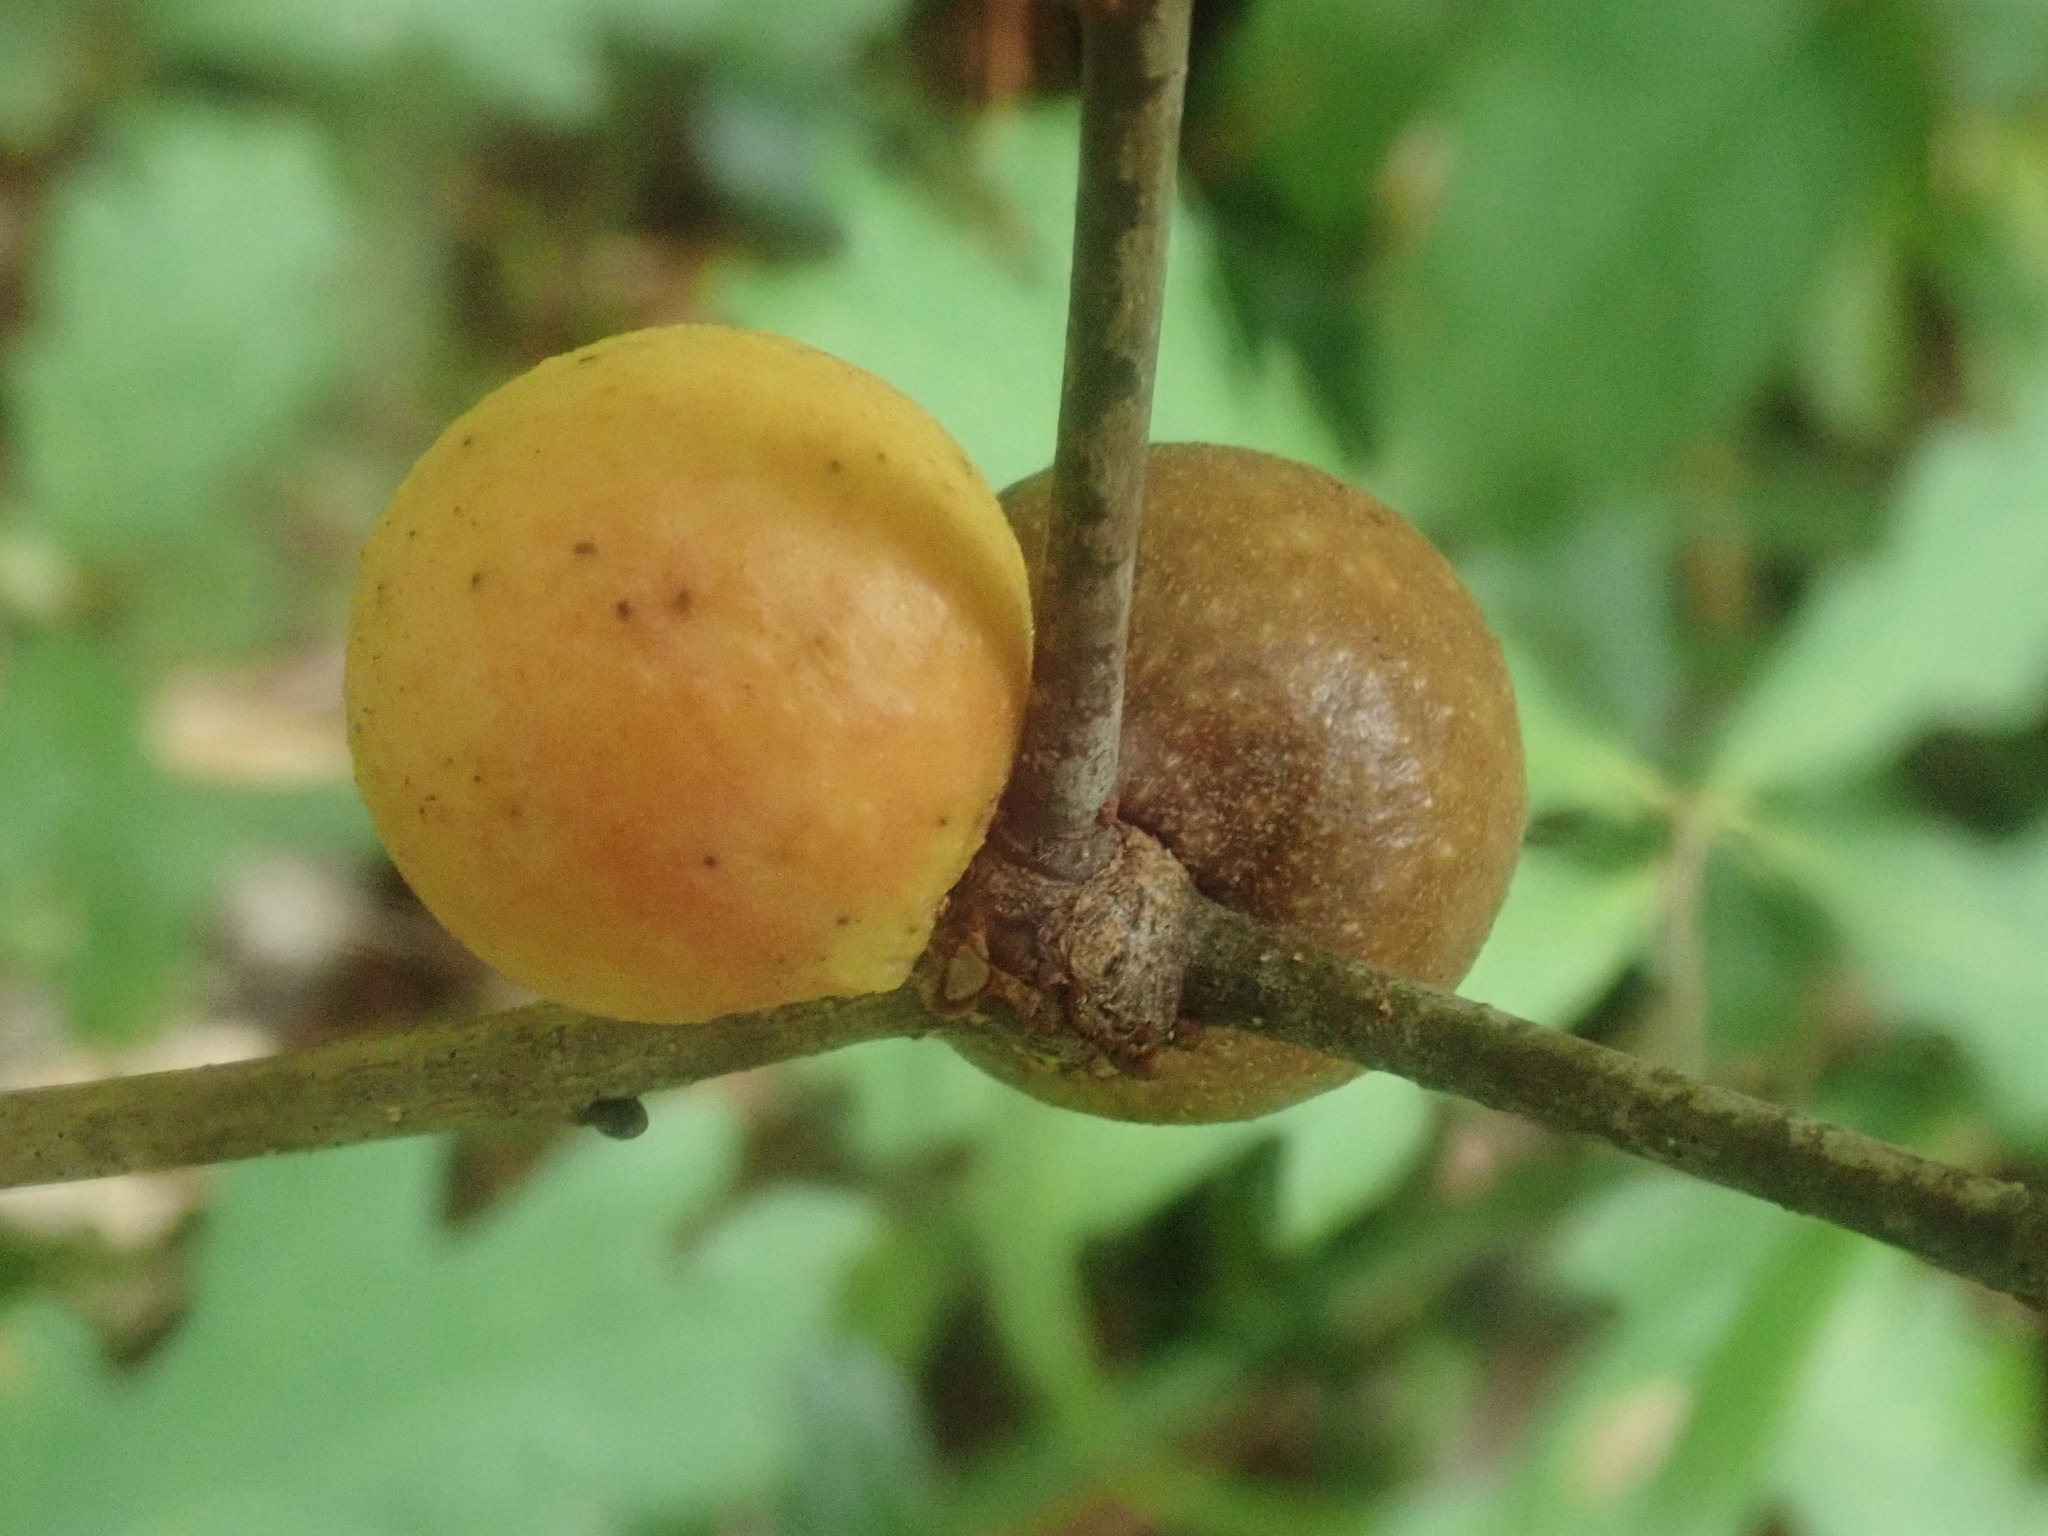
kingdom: Animalia
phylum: Arthropoda
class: Insecta
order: Hymenoptera
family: Cynipidae
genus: Disholcaspis
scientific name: Disholcaspis quercusglobulus
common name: Round bullet gall wasp
